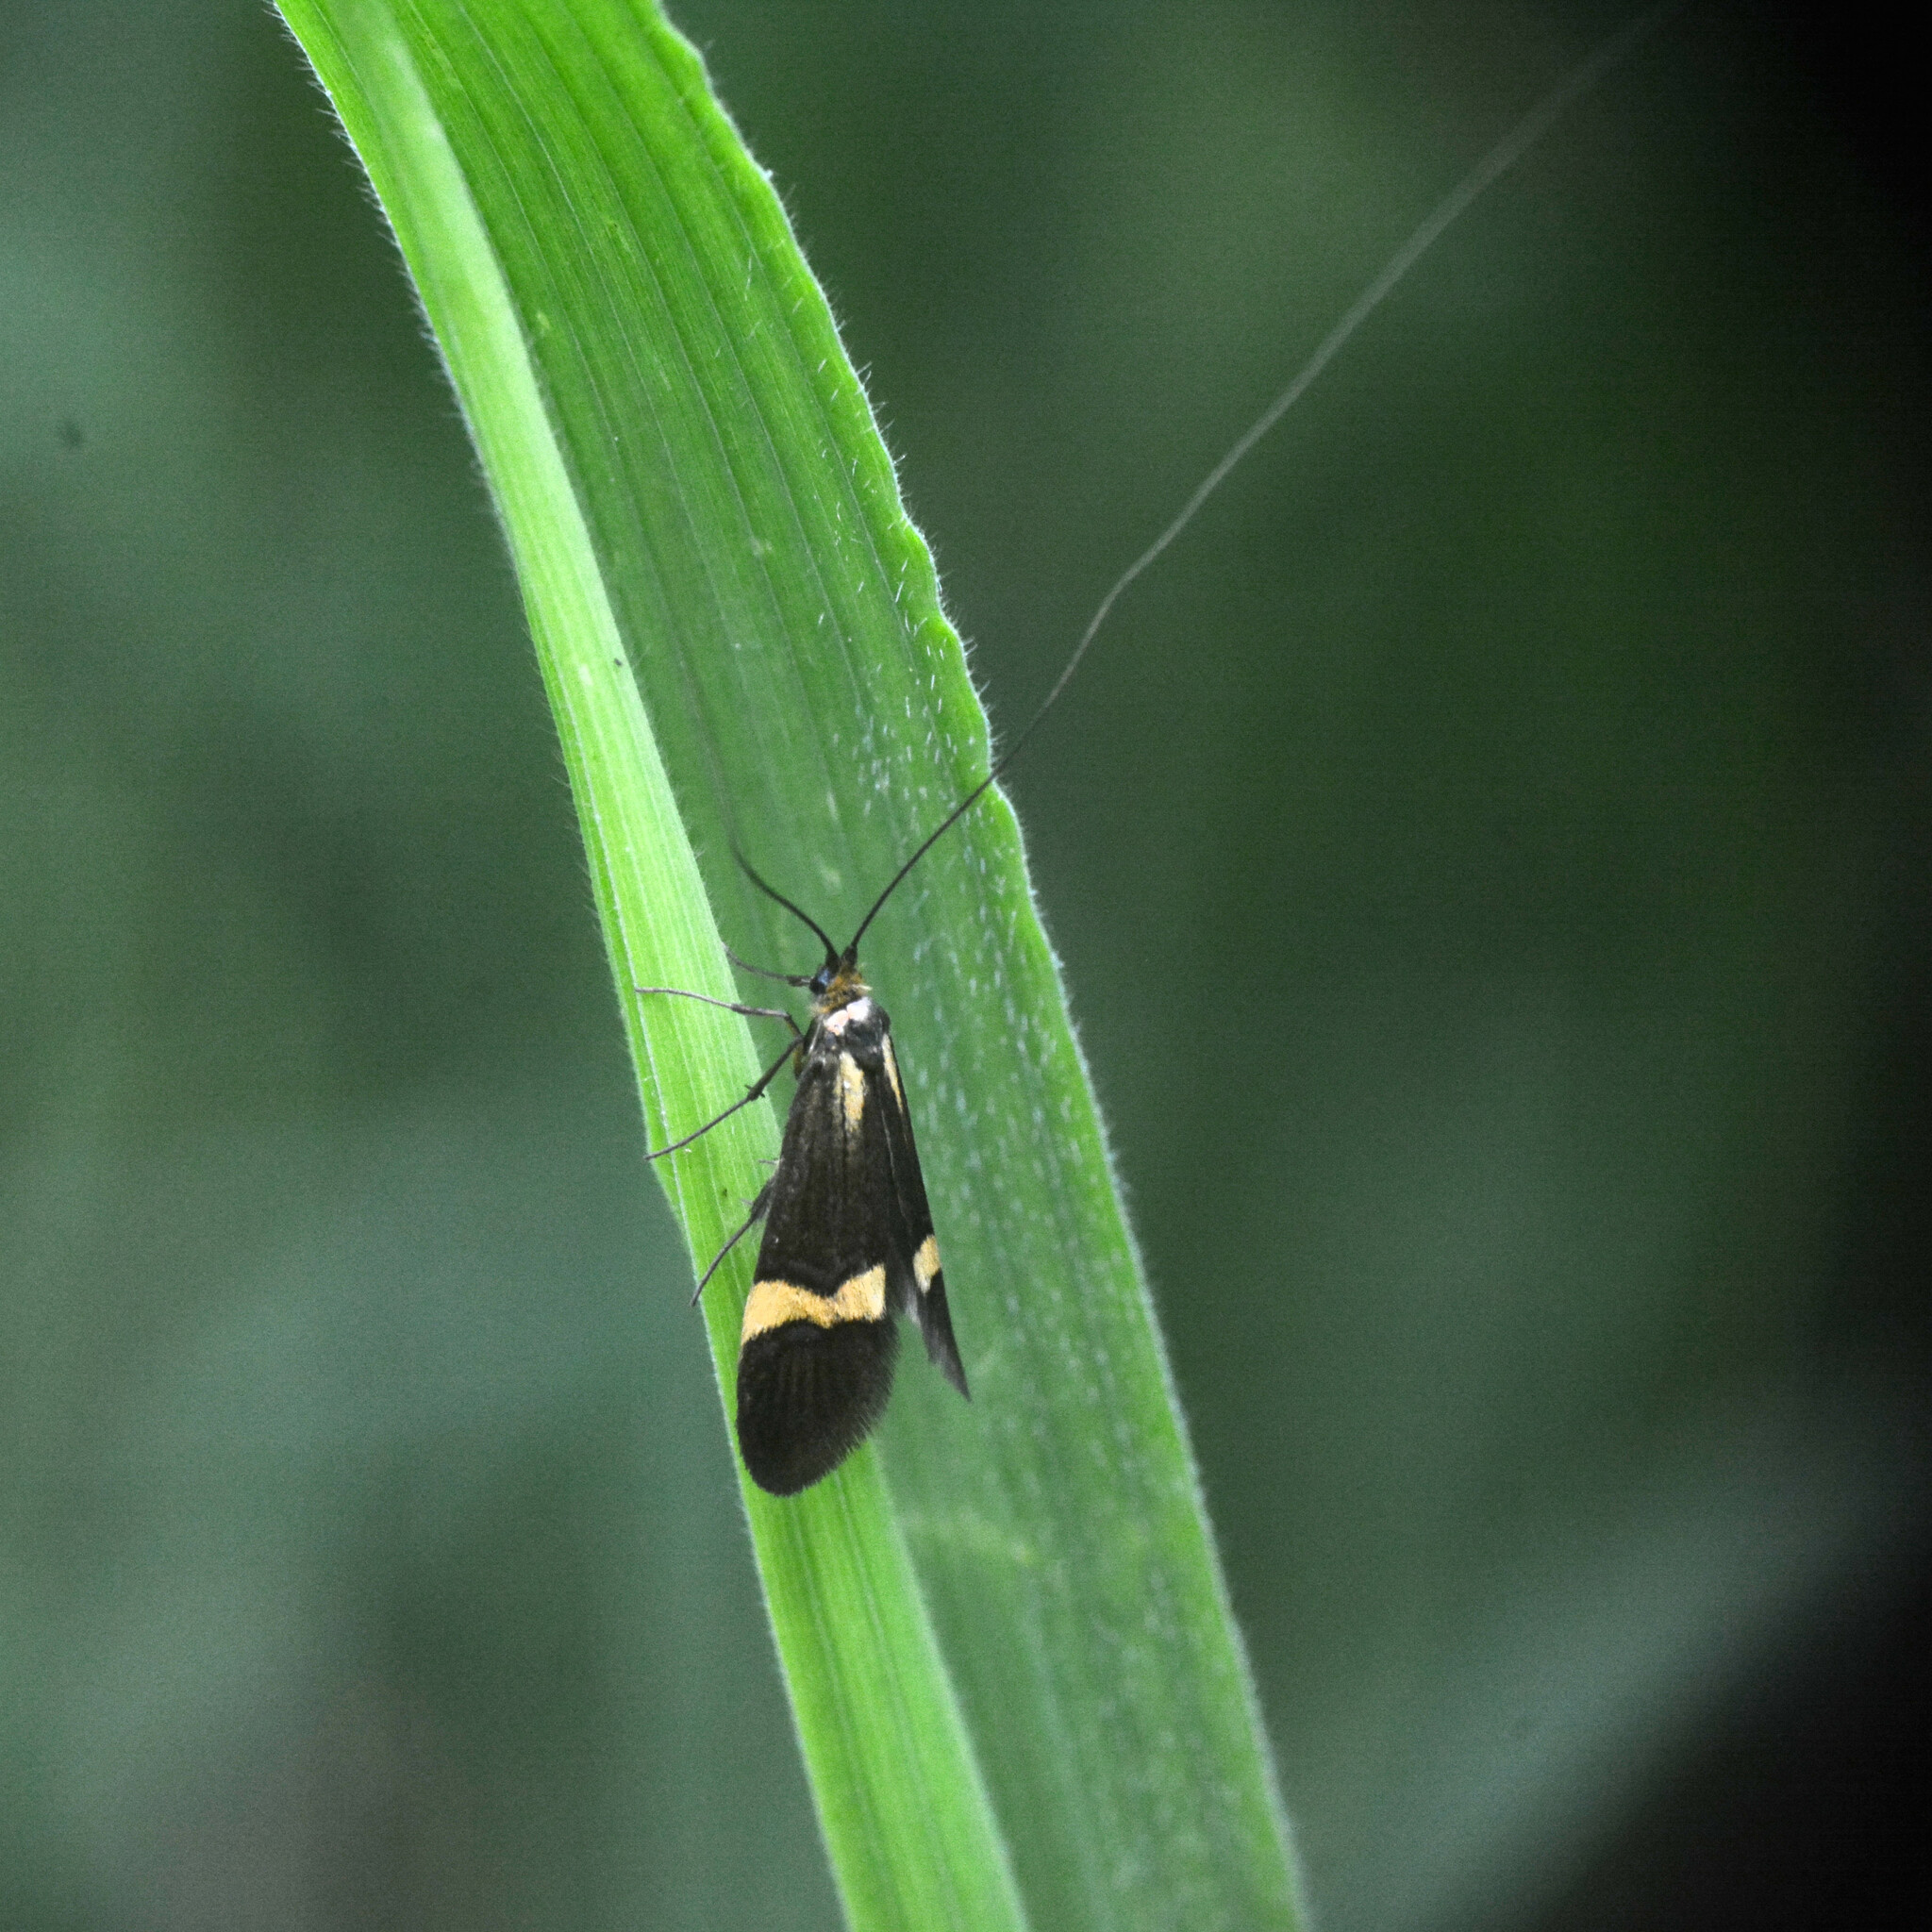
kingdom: Animalia
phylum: Arthropoda
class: Insecta
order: Lepidoptera
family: Adelidae
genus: Nemophora
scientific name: Nemophora degeerella
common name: Yellow-barred long-horn
